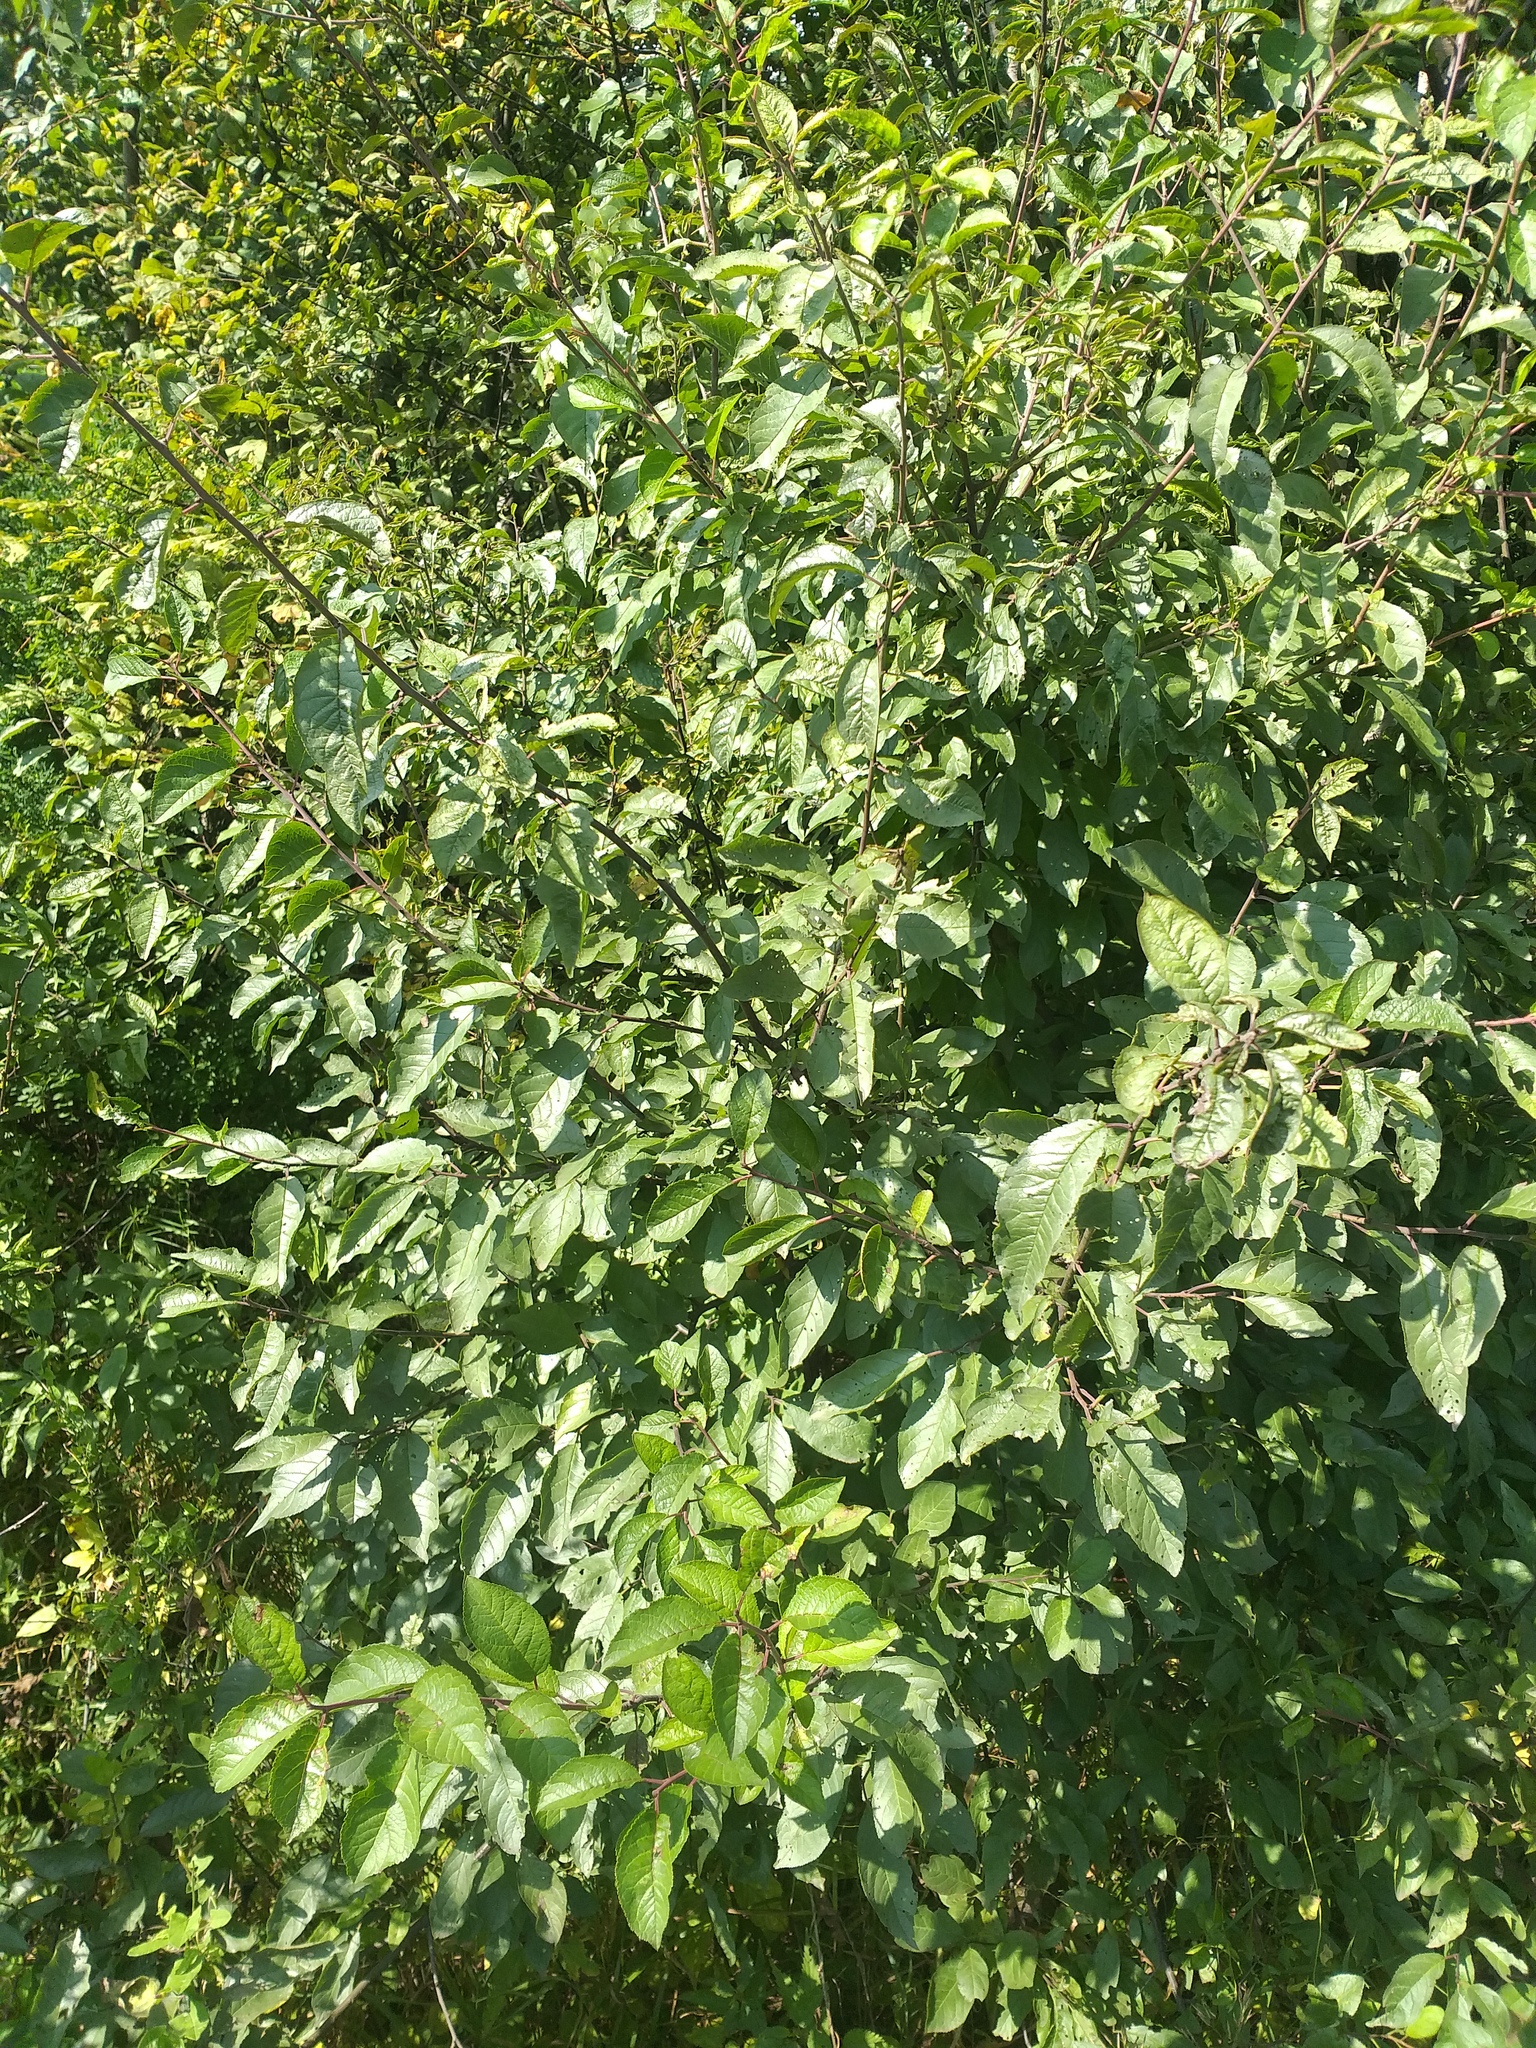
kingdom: Plantae
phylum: Tracheophyta
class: Magnoliopsida
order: Rosales
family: Rosaceae
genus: Prunus
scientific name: Prunus domestica
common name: Wild plum
